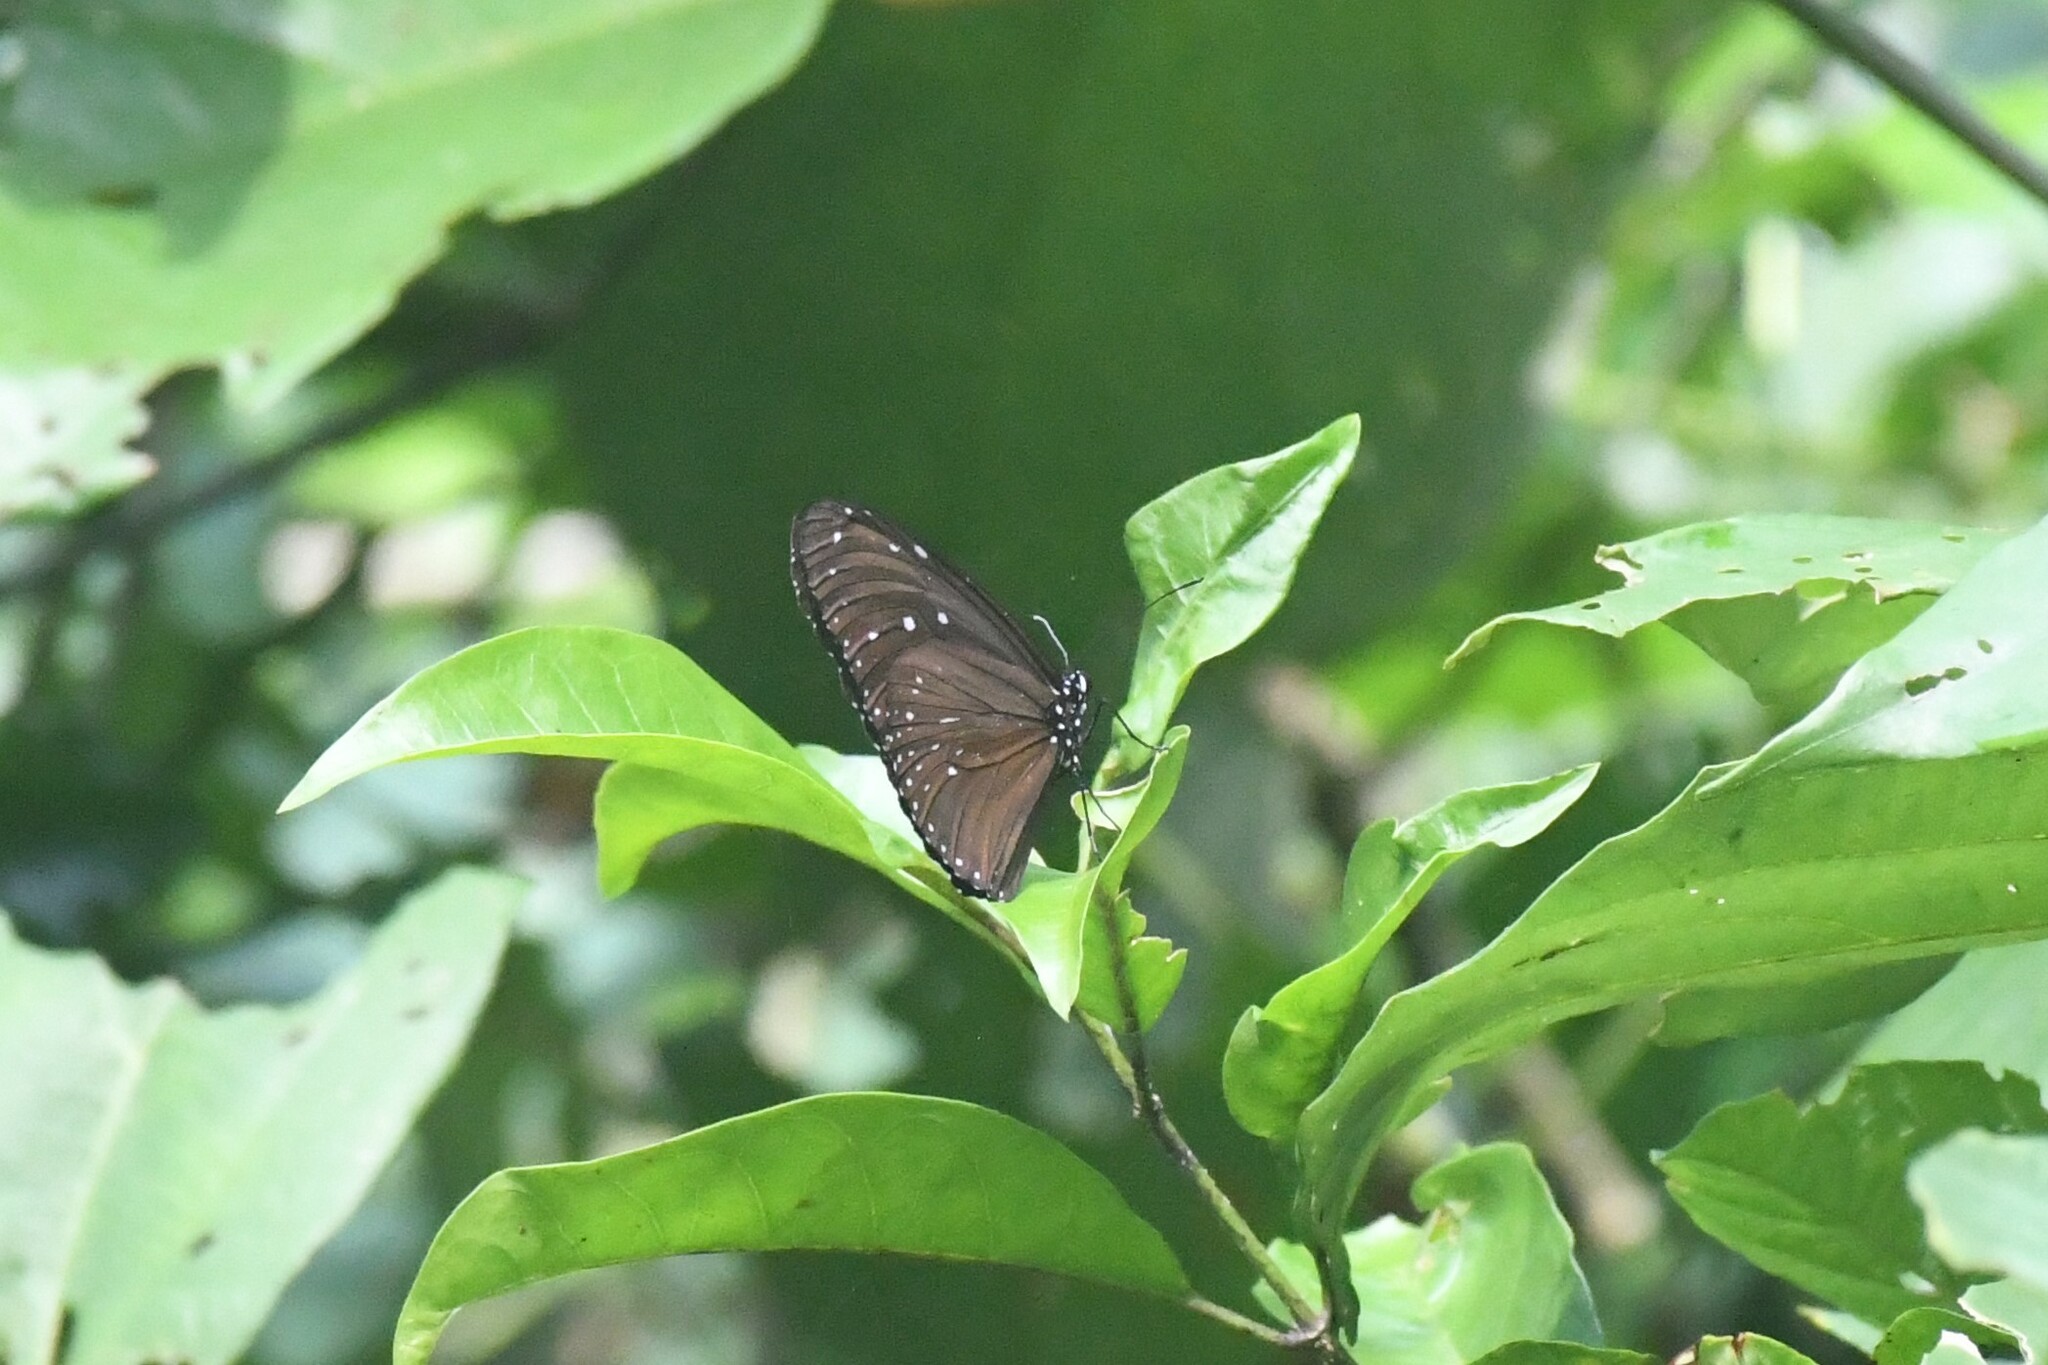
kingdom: Animalia
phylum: Arthropoda
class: Insecta
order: Lepidoptera
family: Nymphalidae
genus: Euploea
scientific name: Euploea mulciber
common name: Striped blue crow butterfly
